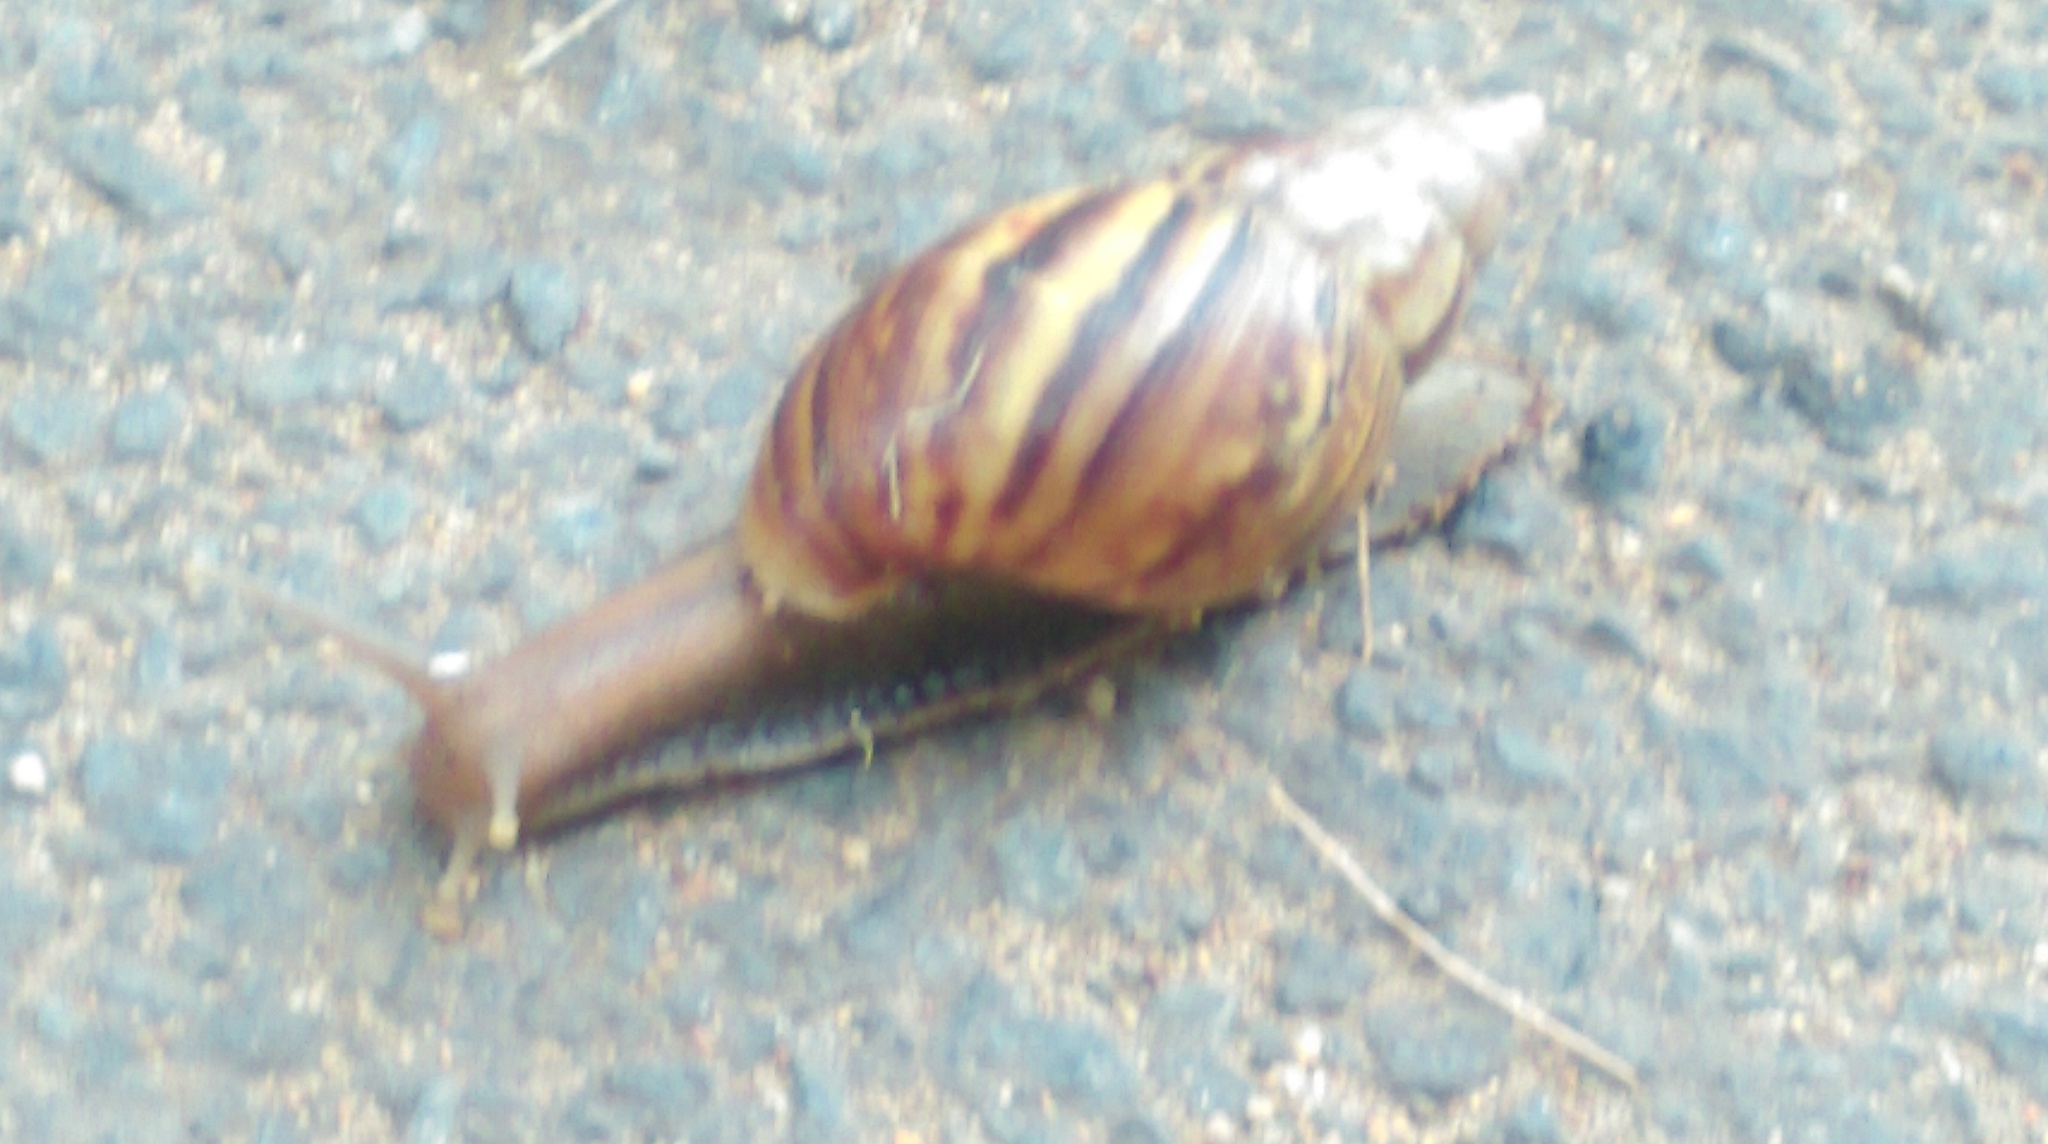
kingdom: Animalia
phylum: Mollusca
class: Gastropoda
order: Stylommatophora
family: Achatinidae
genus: Lissachatina
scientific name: Lissachatina fulica
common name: Giant african snail
